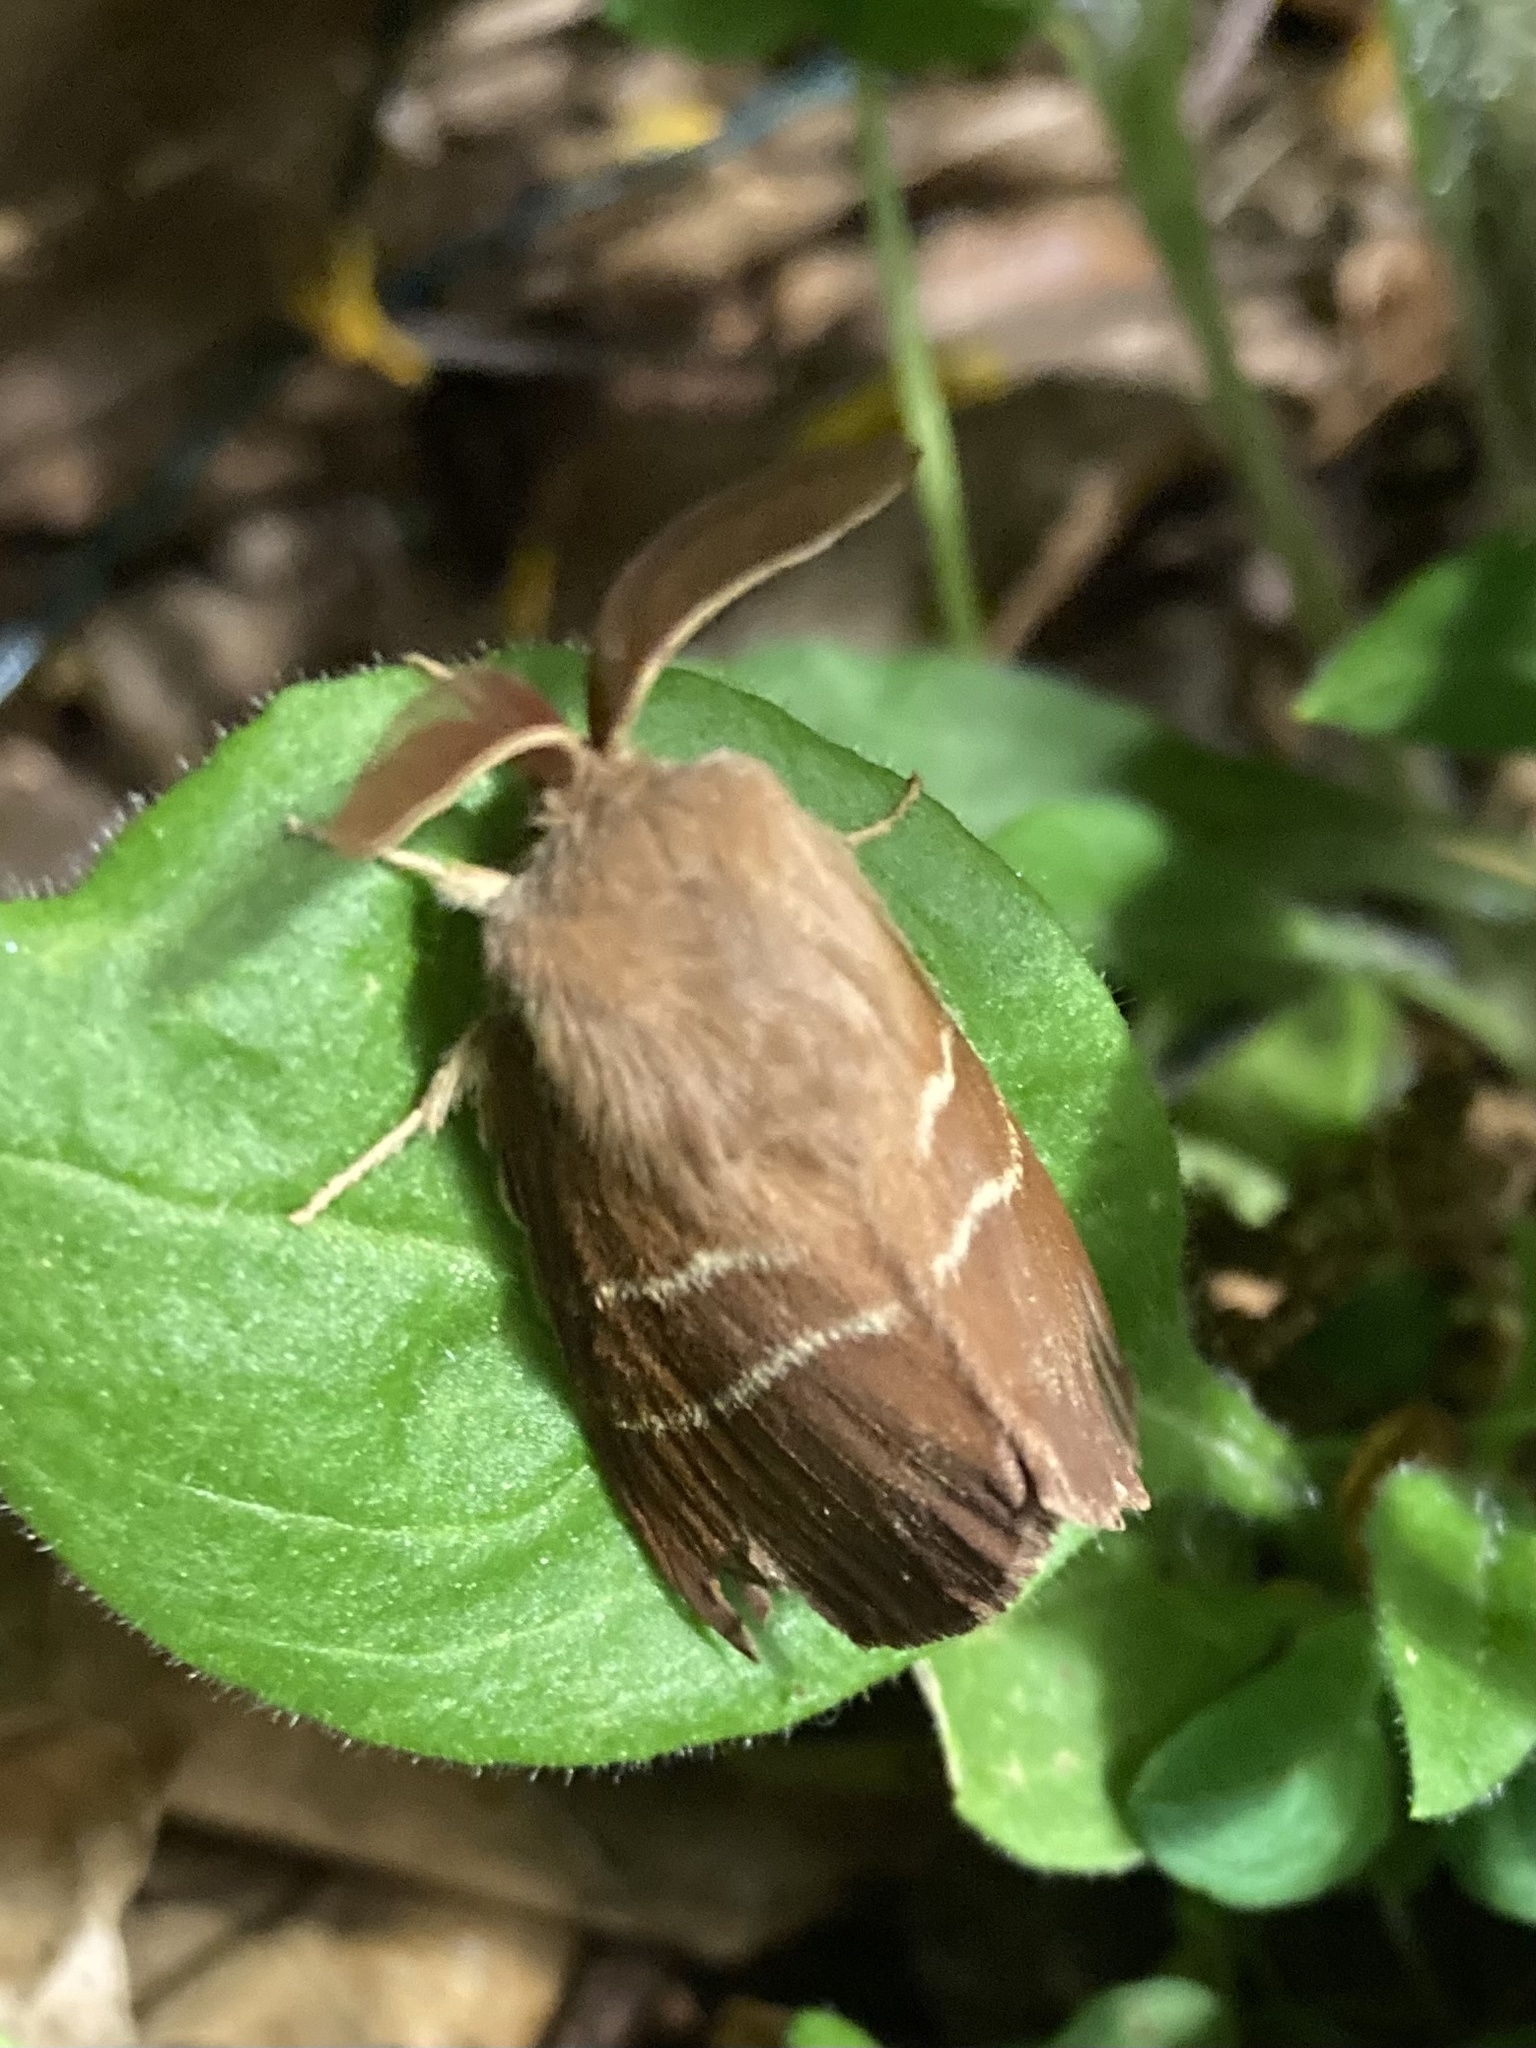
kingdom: Animalia
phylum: Arthropoda
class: Insecta
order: Lepidoptera
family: Lasiocampidae
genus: Macrothylacia
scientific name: Macrothylacia rubi
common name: Fox moth
